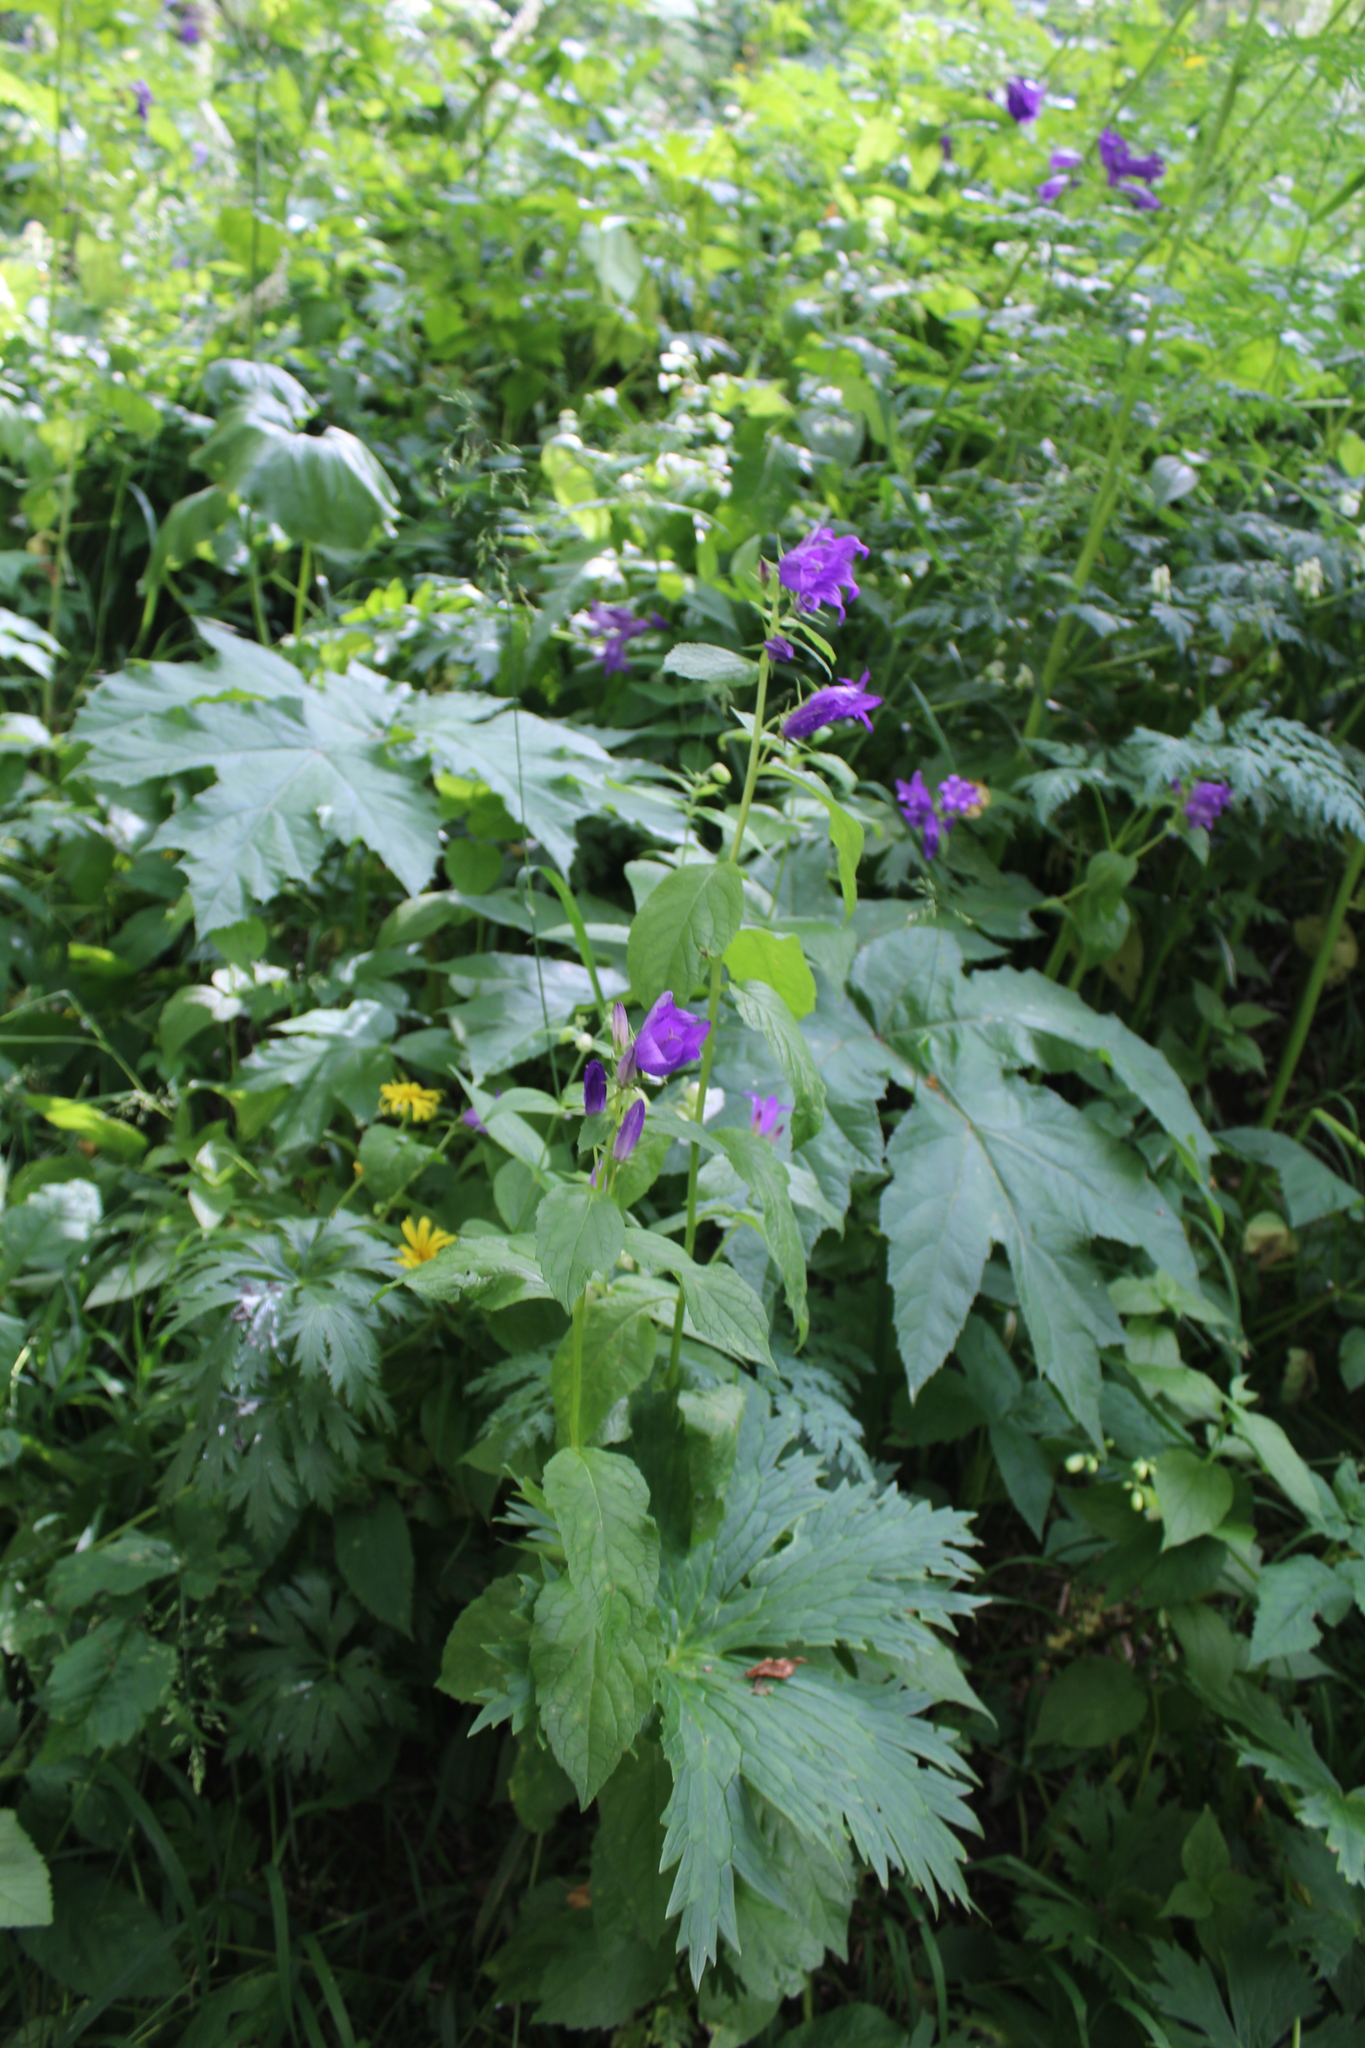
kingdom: Plantae
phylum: Tracheophyta
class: Magnoliopsida
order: Asterales
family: Campanulaceae
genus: Campanula
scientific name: Campanula latifolia
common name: Giant bellflower
